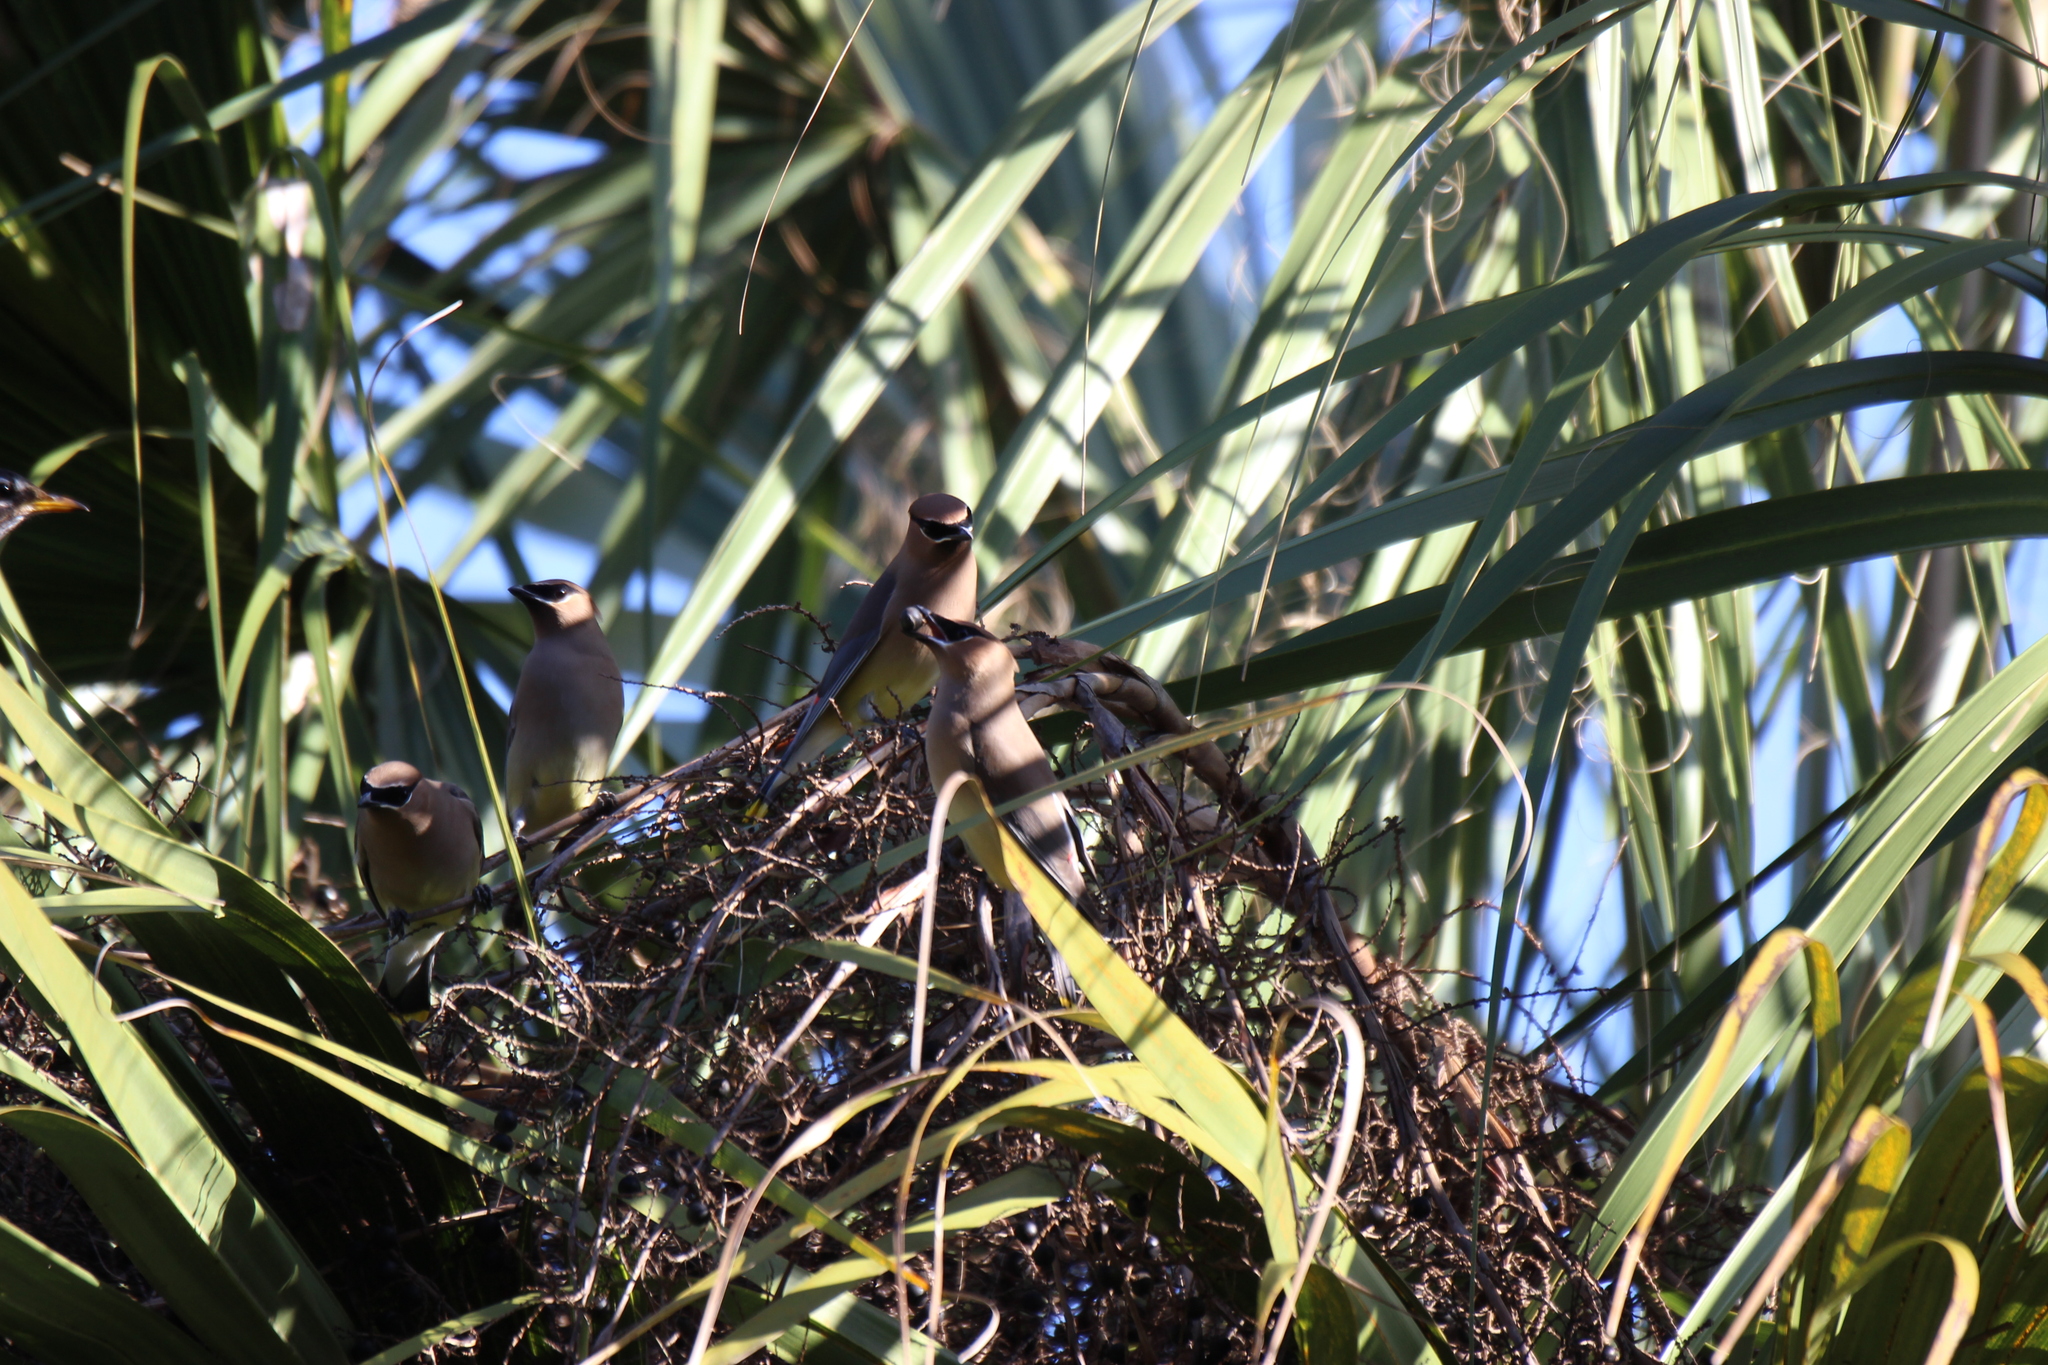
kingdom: Animalia
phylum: Chordata
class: Aves
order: Passeriformes
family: Bombycillidae
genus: Bombycilla
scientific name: Bombycilla cedrorum
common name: Cedar waxwing
